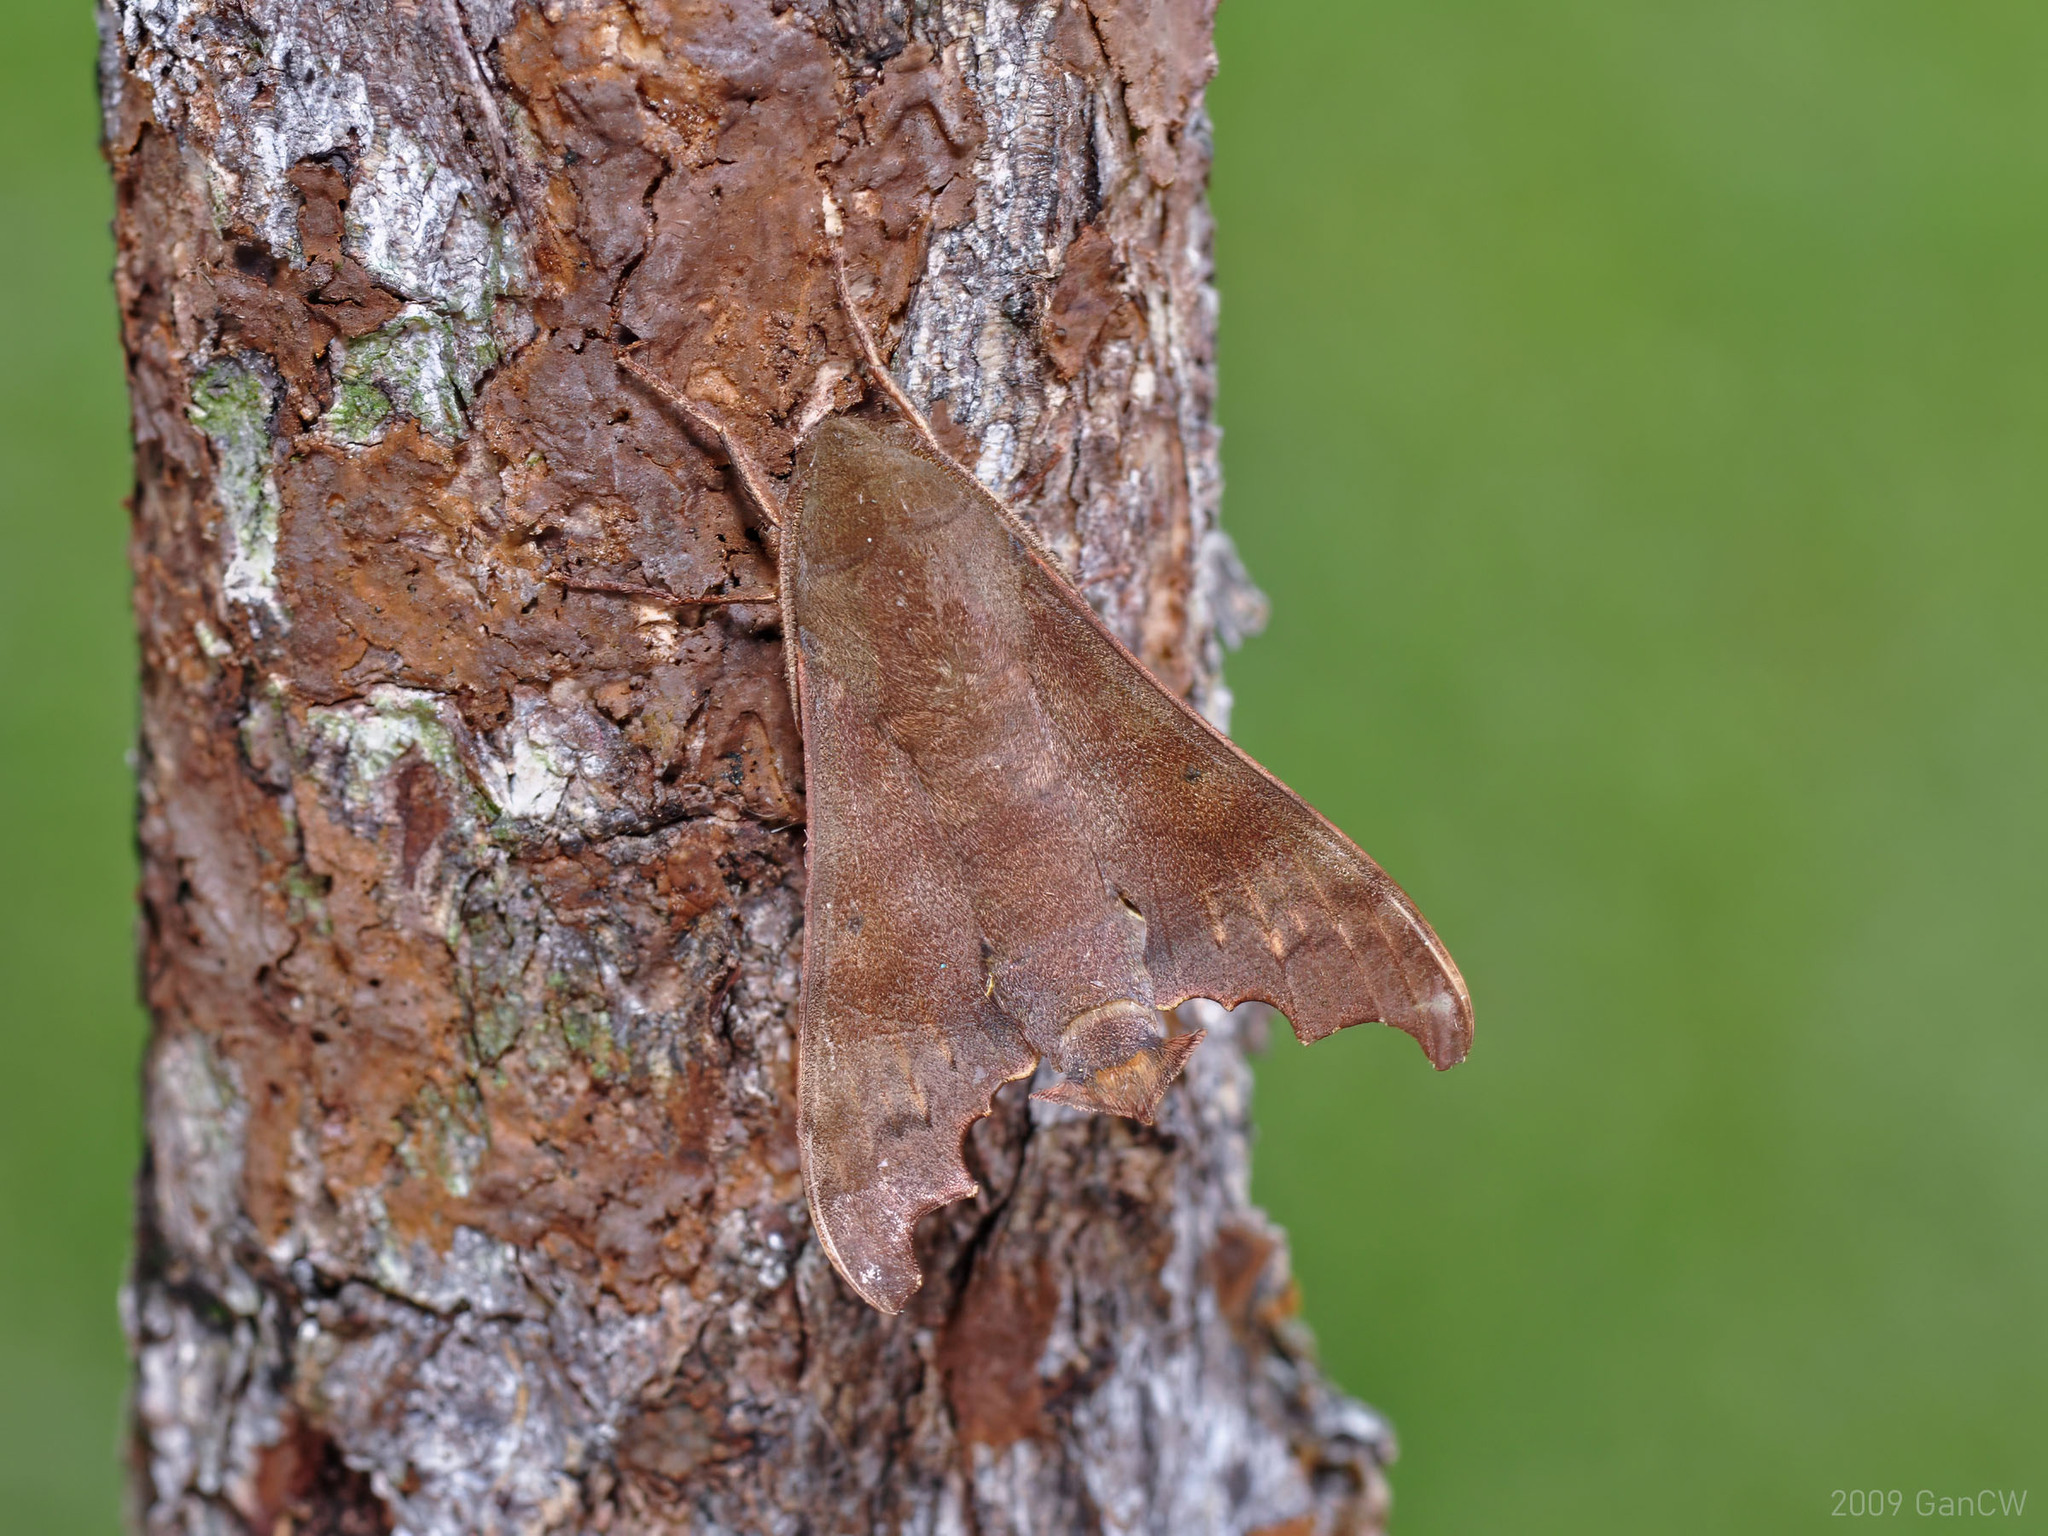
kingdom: Animalia
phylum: Arthropoda
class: Insecta
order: Lepidoptera
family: Sphingidae
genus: Cypa
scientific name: Cypa decolor
